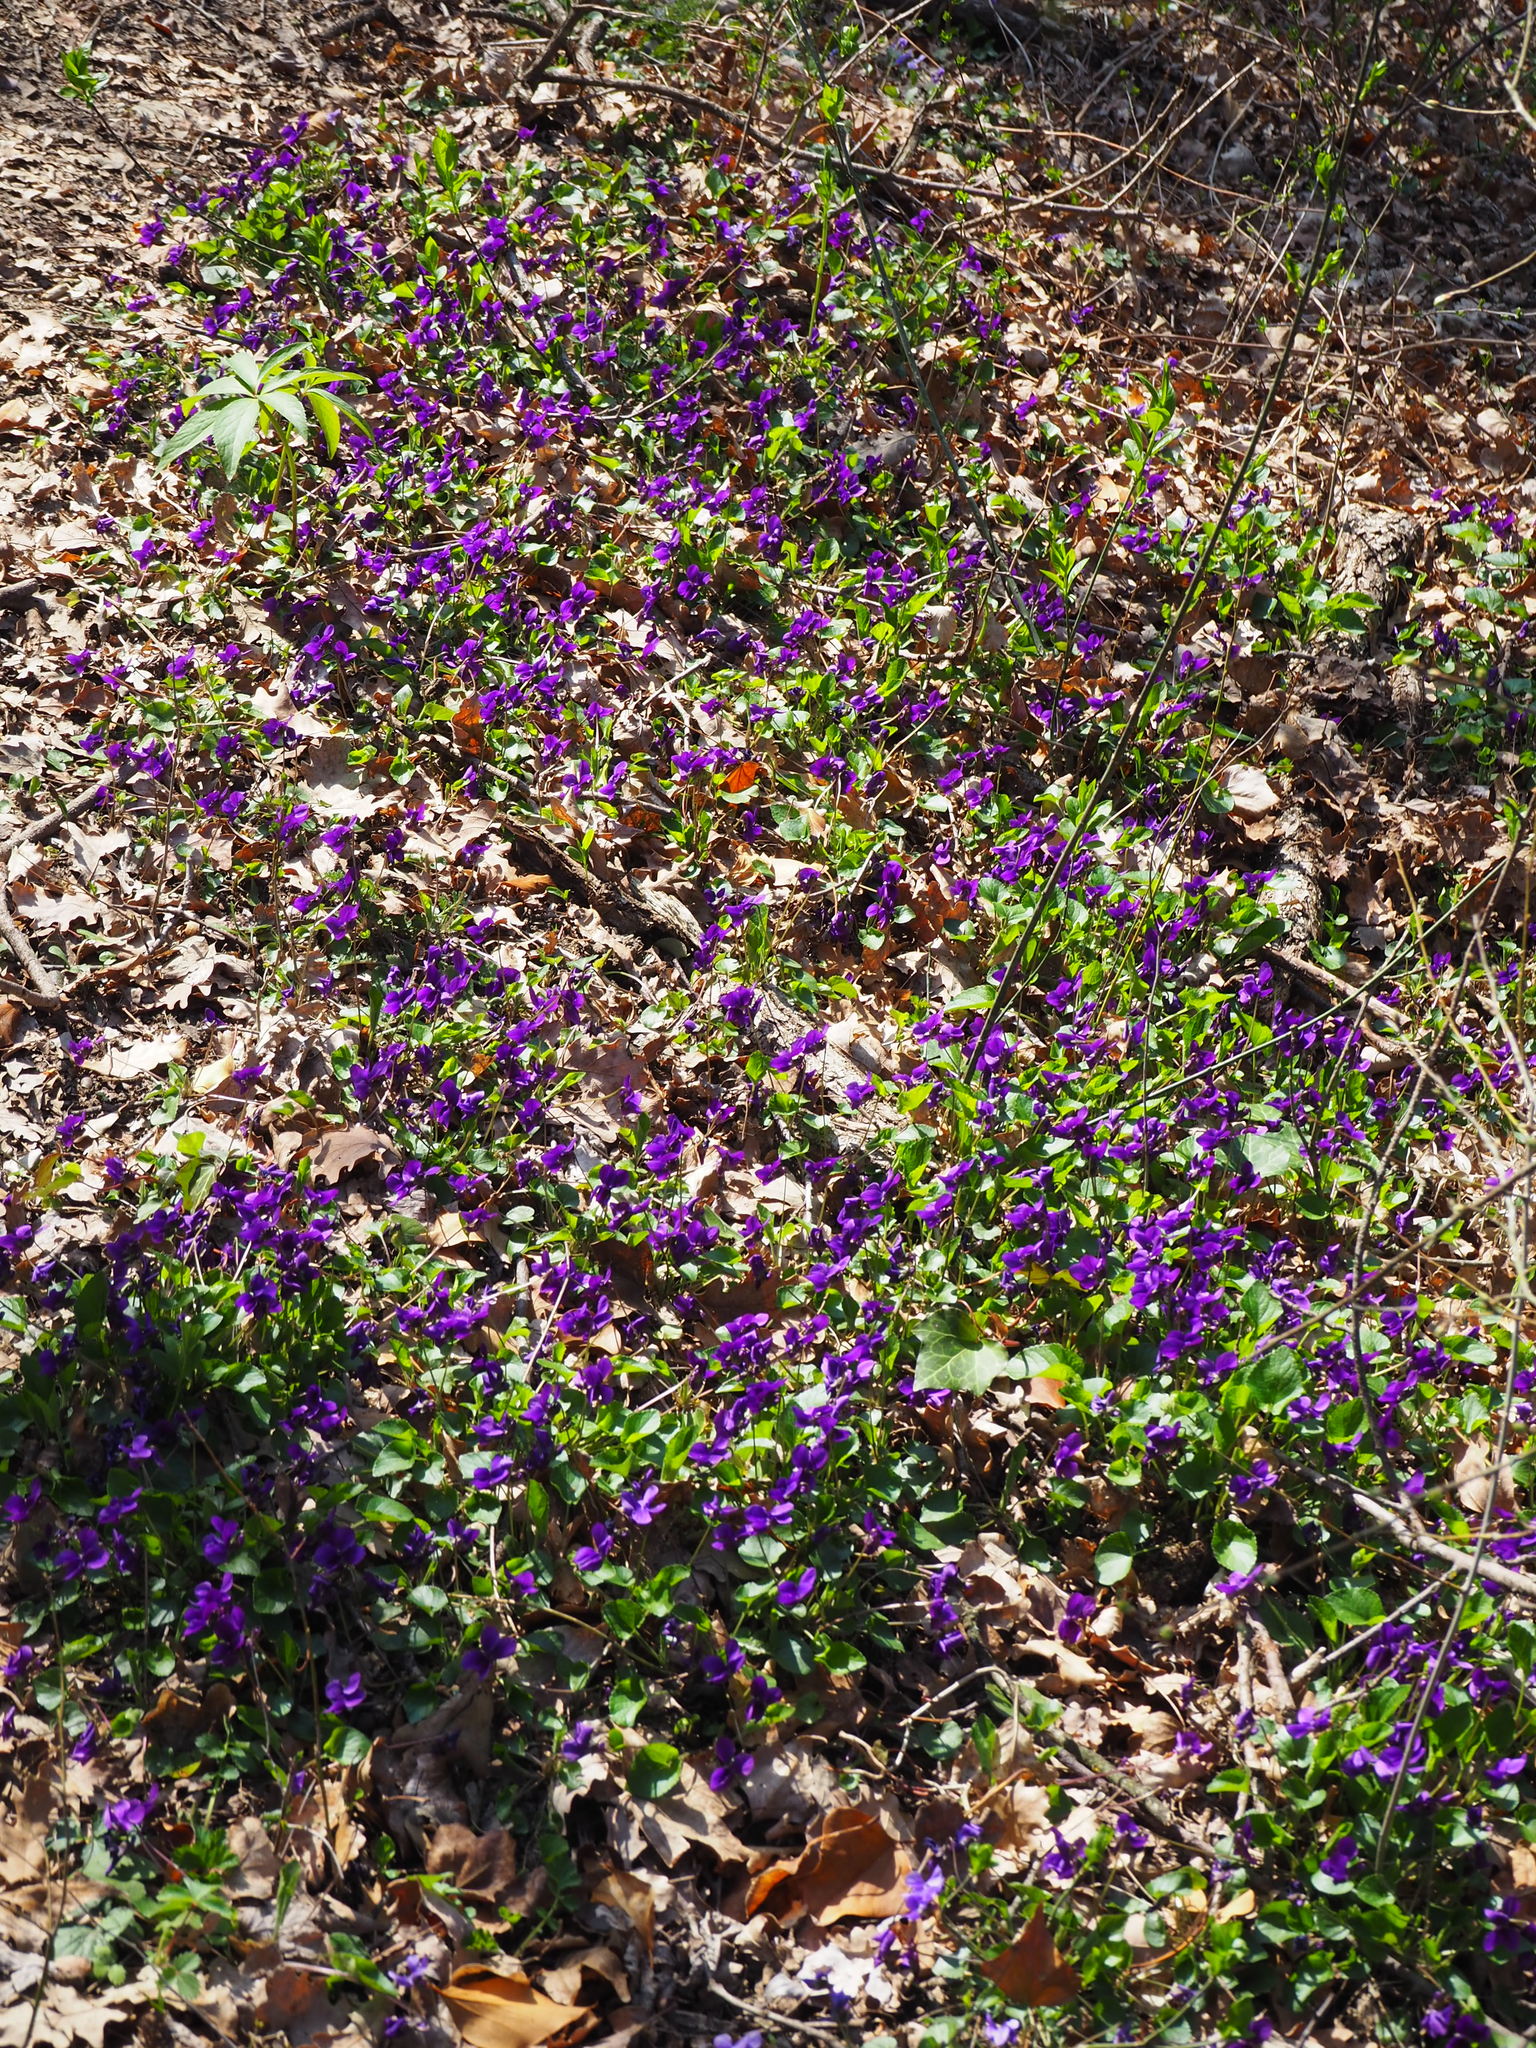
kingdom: Plantae
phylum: Tracheophyta
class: Magnoliopsida
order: Malpighiales
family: Violaceae
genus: Viola
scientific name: Viola odorata
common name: Sweet violet
